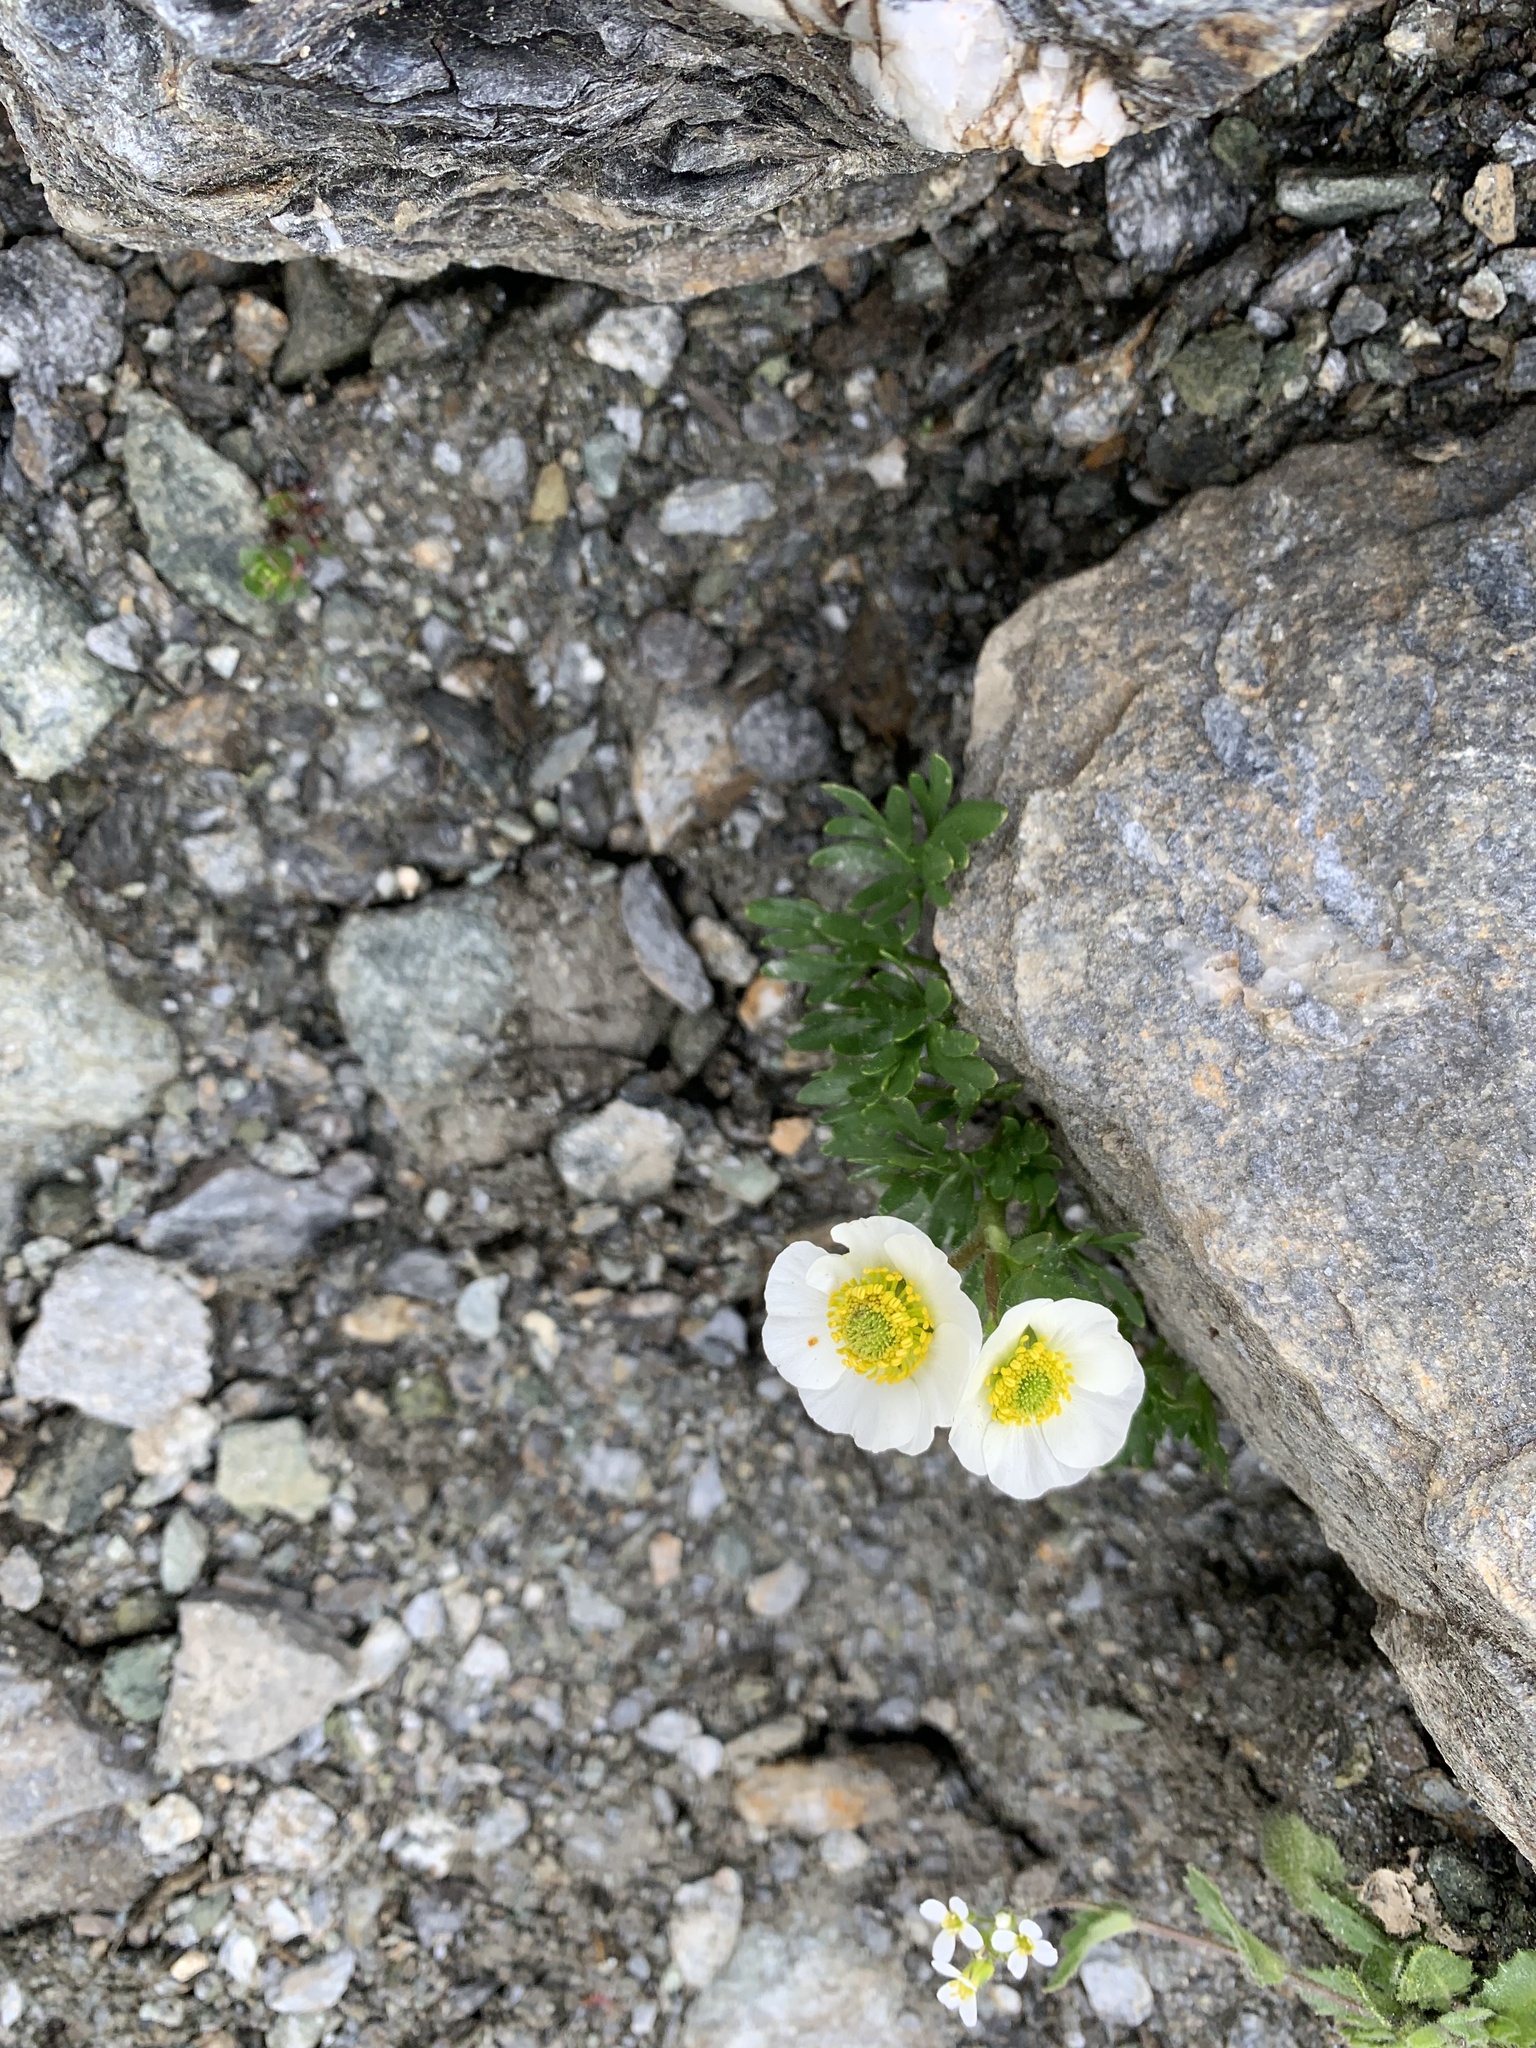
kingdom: Plantae
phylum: Tracheophyta
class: Magnoliopsida
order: Ranunculales
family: Ranunculaceae
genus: Ranunculus
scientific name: Ranunculus glacialis
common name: Glacier buttercup
